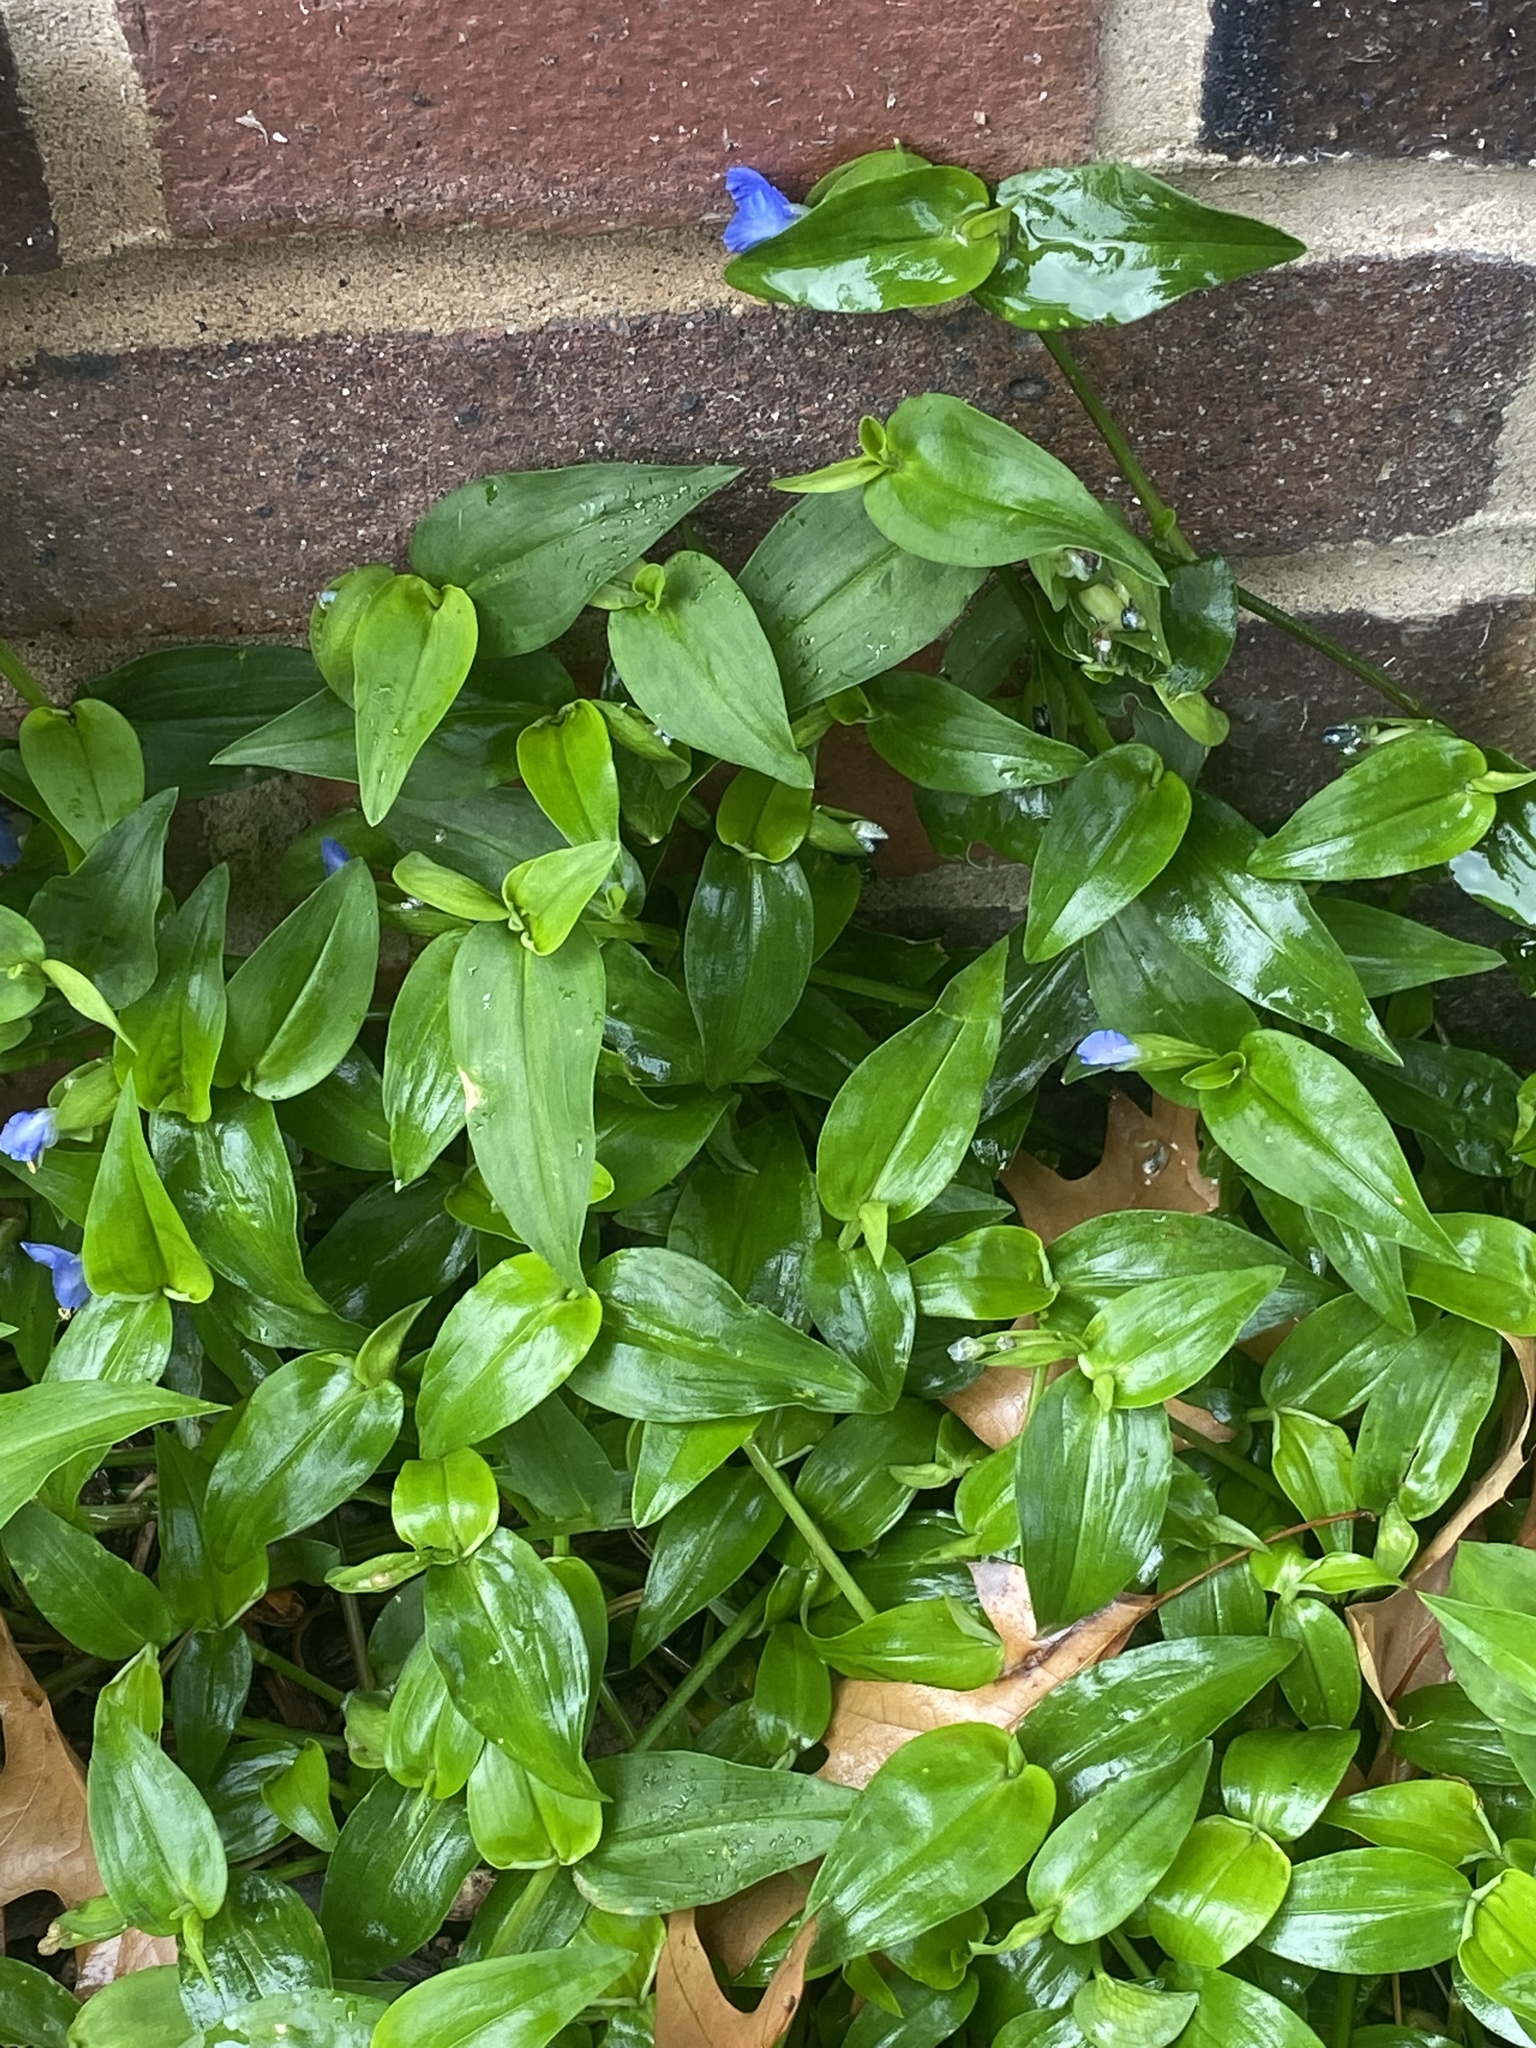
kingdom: Plantae
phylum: Tracheophyta
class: Liliopsida
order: Commelinales
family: Commelinaceae
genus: Commelina
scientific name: Commelina communis
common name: Asiatic dayflower
